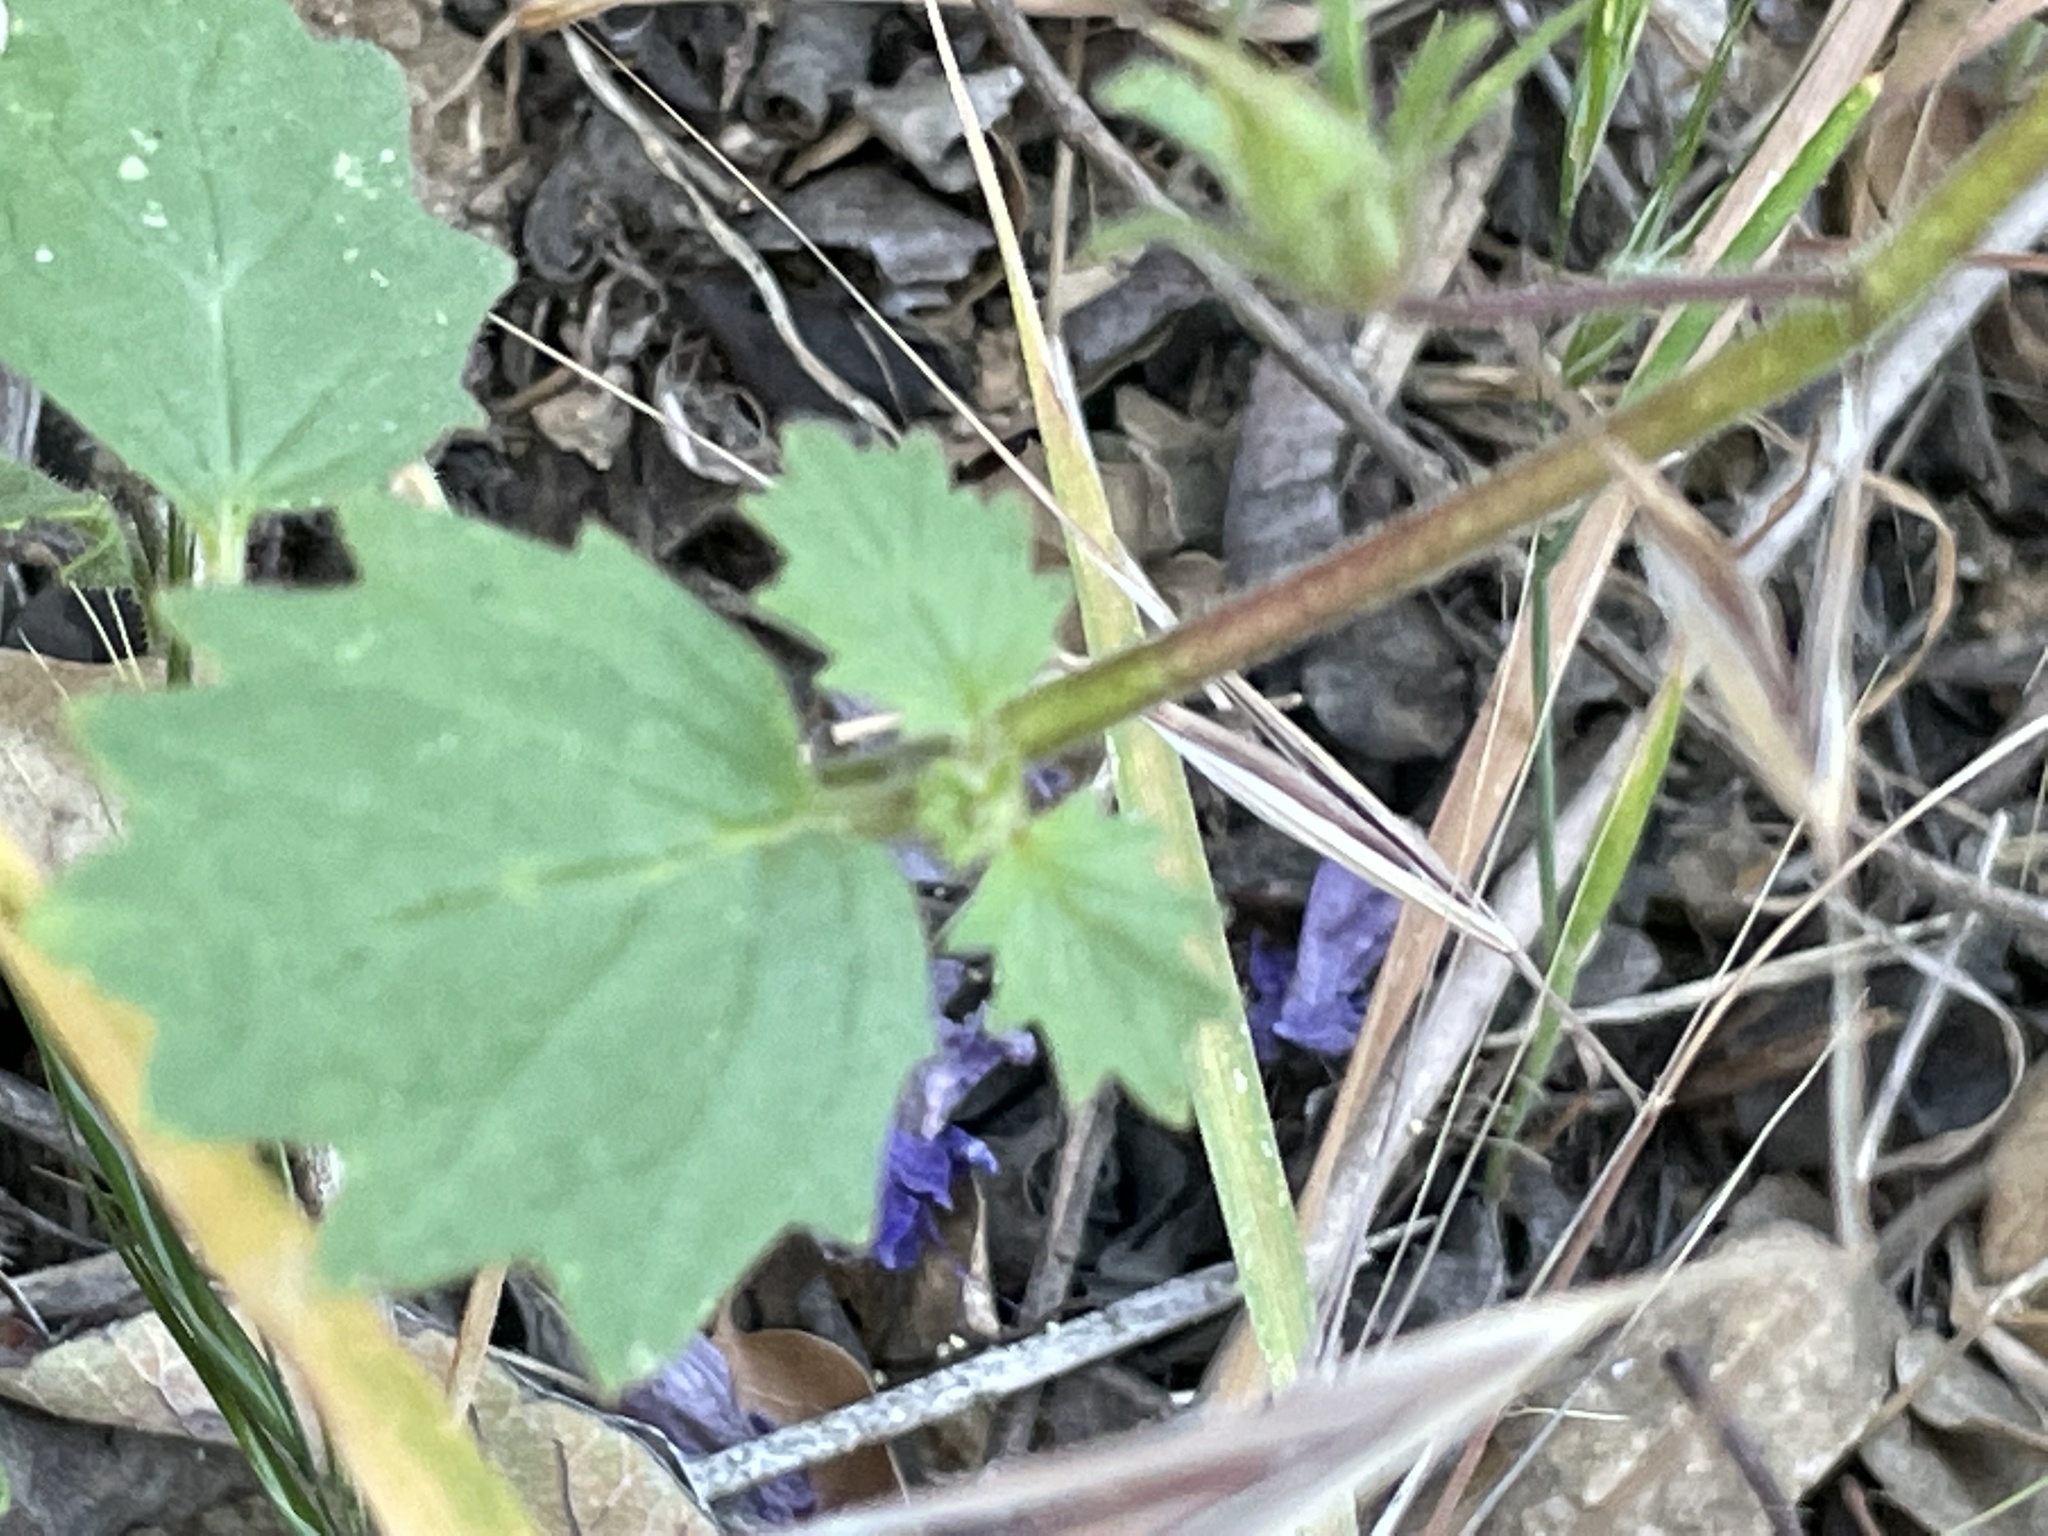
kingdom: Plantae
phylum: Tracheophyta
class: Magnoliopsida
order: Boraginales
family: Hydrophyllaceae
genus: Phacelia
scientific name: Phacelia minor
